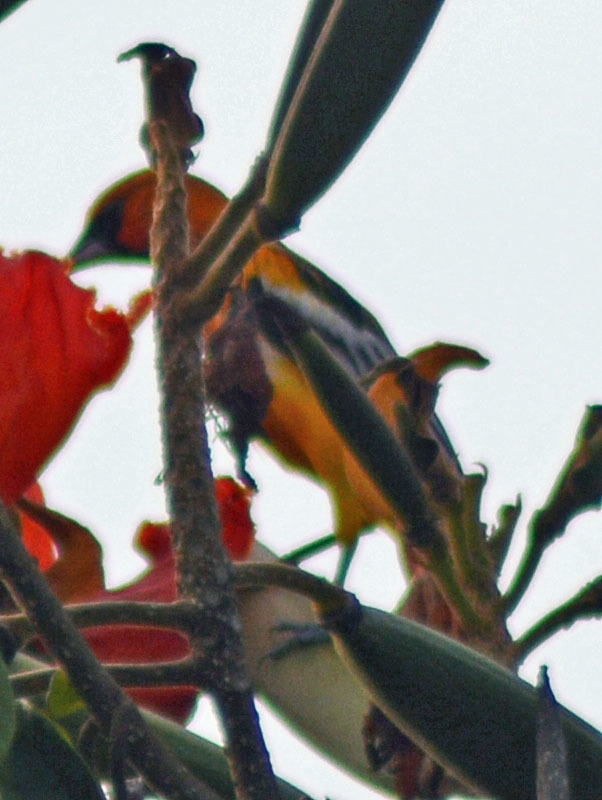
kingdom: Animalia
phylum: Chordata
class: Aves
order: Passeriformes
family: Icteridae
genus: Icterus
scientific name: Icterus pustulatus
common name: Streak-backed oriole
